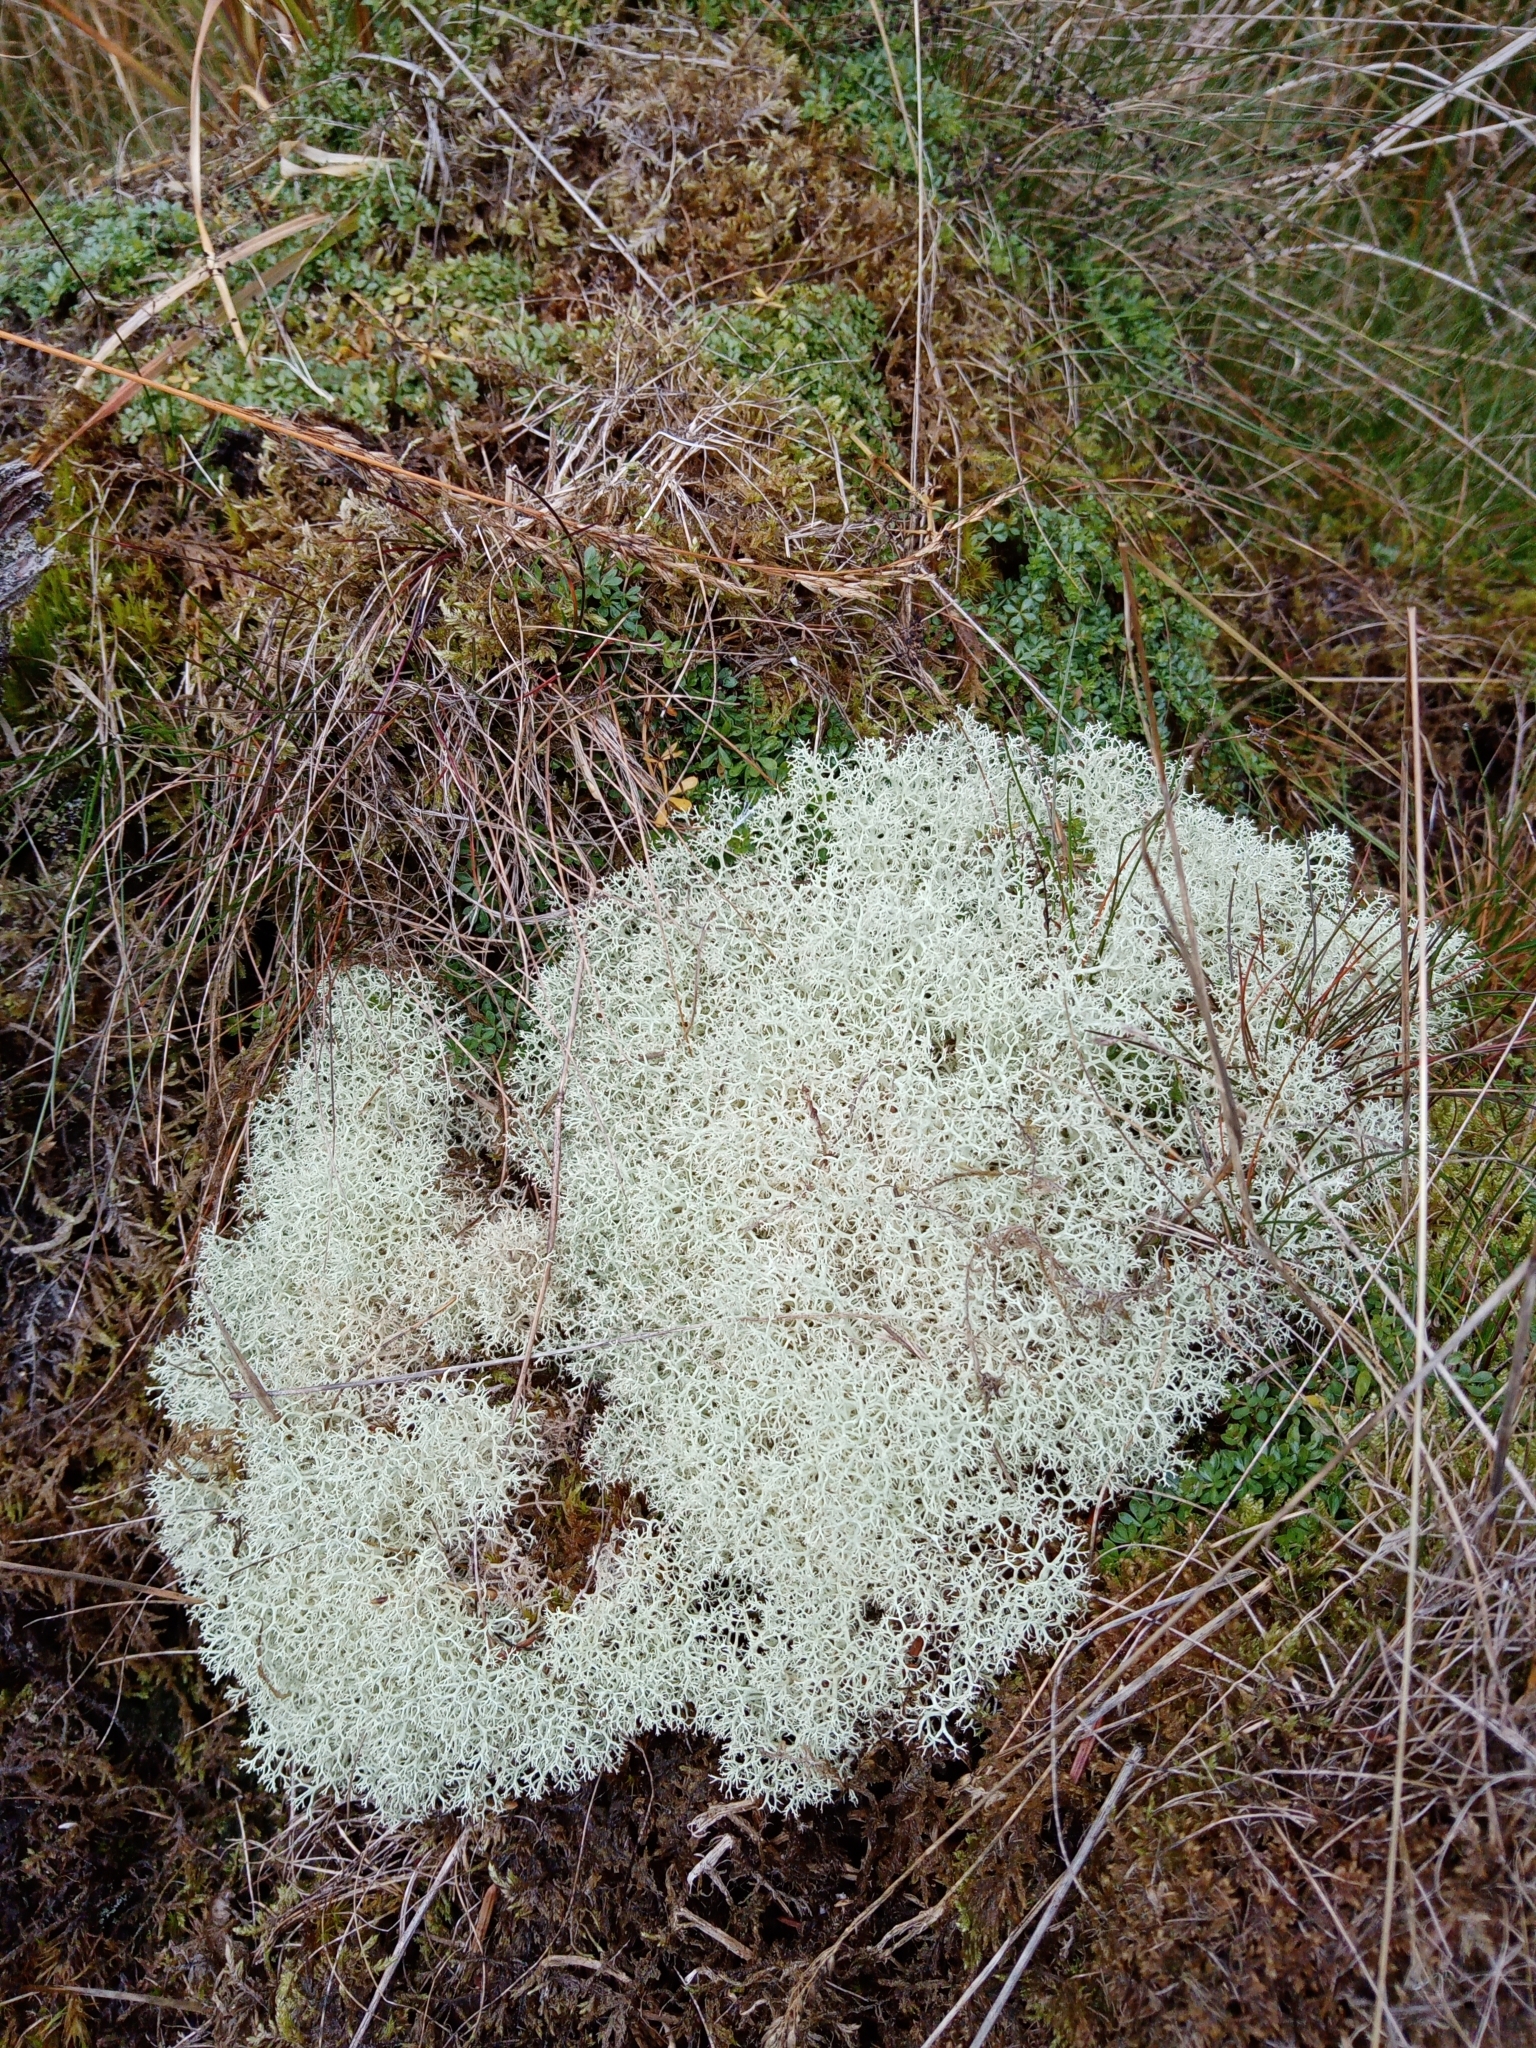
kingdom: Fungi
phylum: Ascomycota
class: Lecanoromycetes
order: Lecanorales
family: Cladoniaceae
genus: Cladonia
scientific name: Cladonia portentosa
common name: Reindeer lichen
